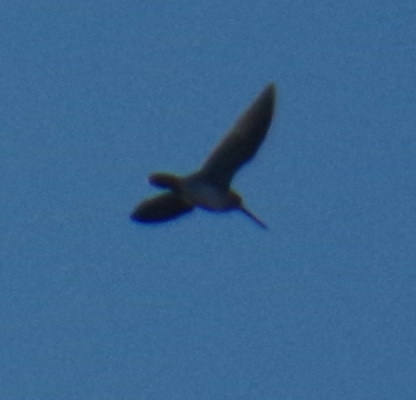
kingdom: Animalia
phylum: Chordata
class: Aves
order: Charadriiformes
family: Scolopacidae
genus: Gallinago
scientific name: Gallinago delicata
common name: Wilson's snipe
